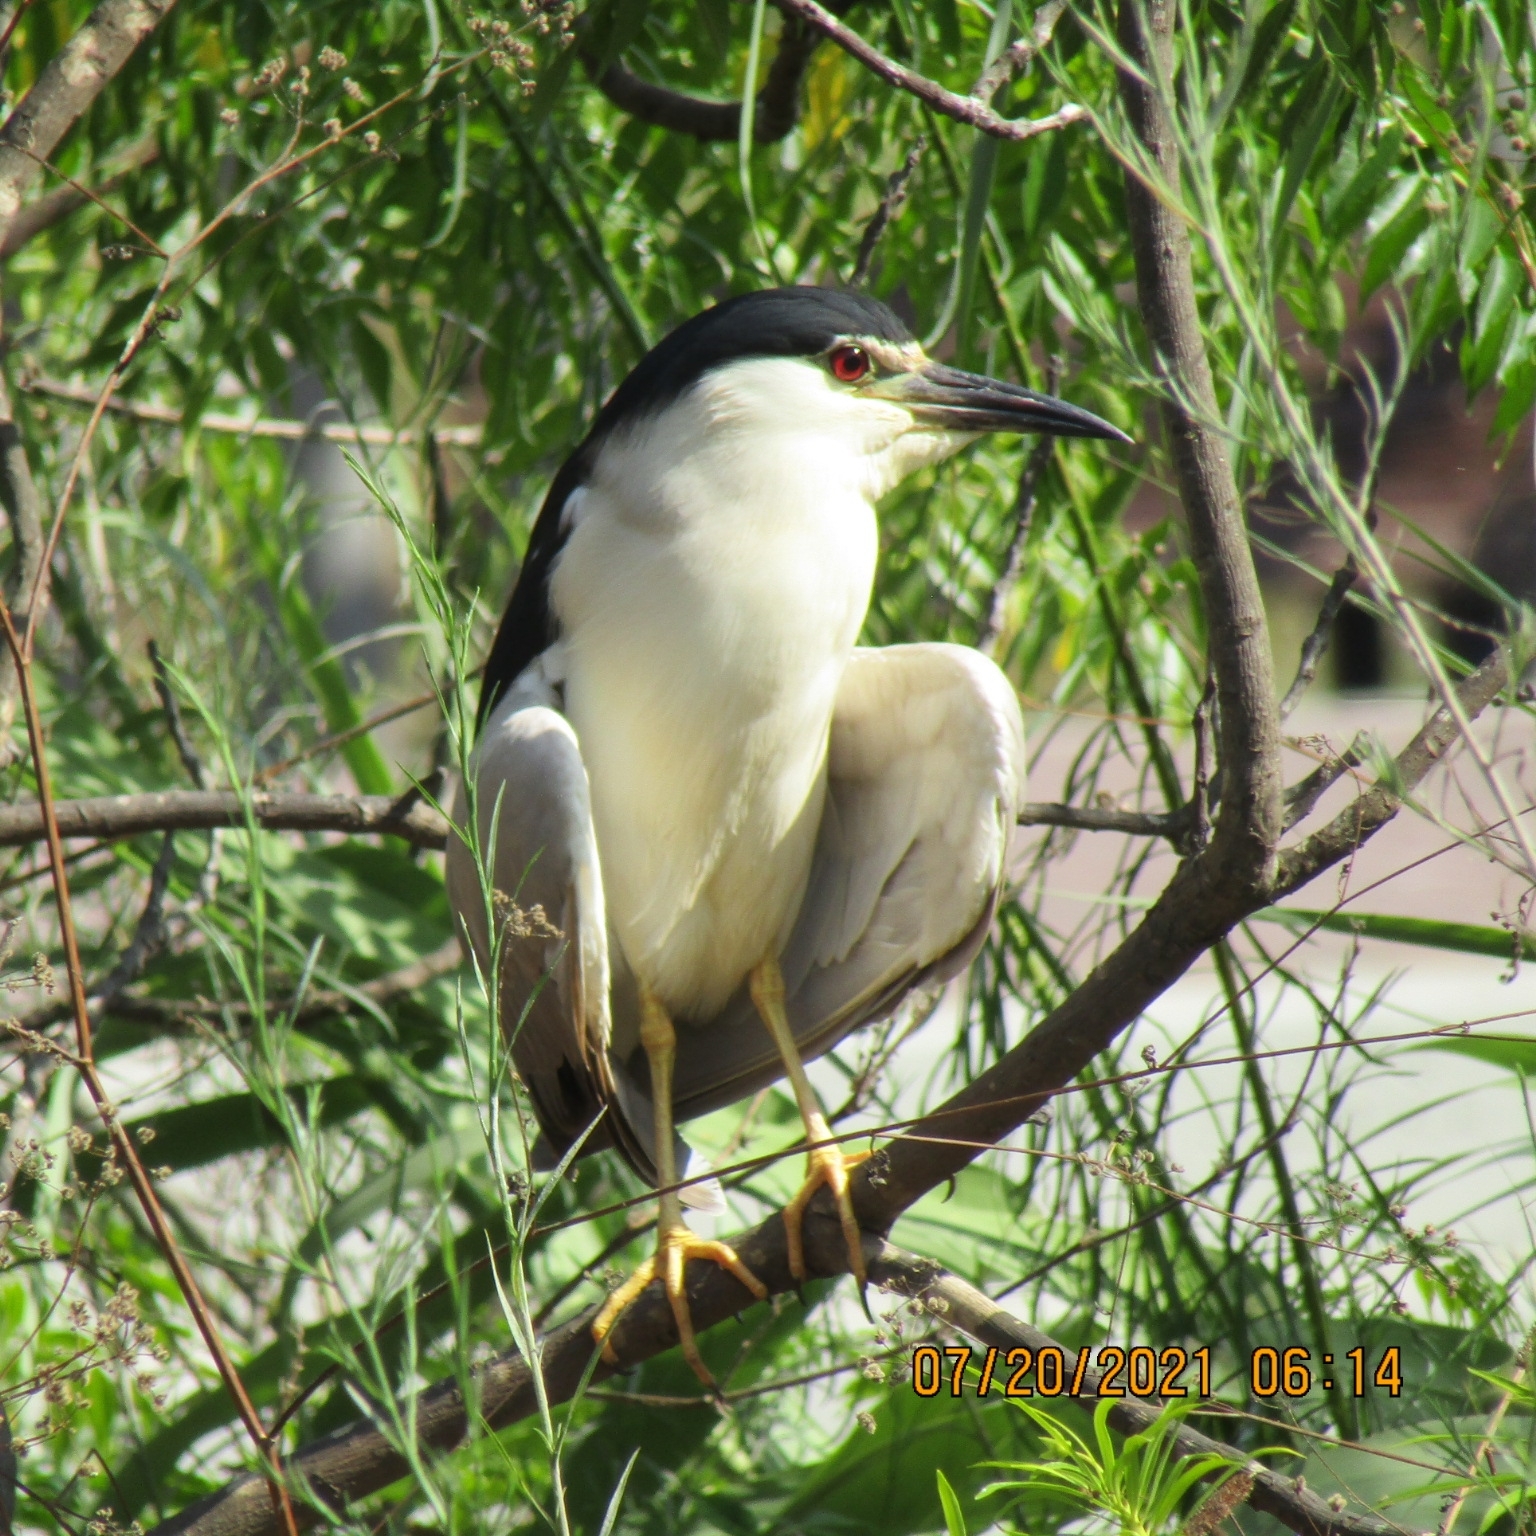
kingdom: Animalia
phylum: Chordata
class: Aves
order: Pelecaniformes
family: Ardeidae
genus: Nycticorax
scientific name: Nycticorax nycticorax
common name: Black-crowned night heron
